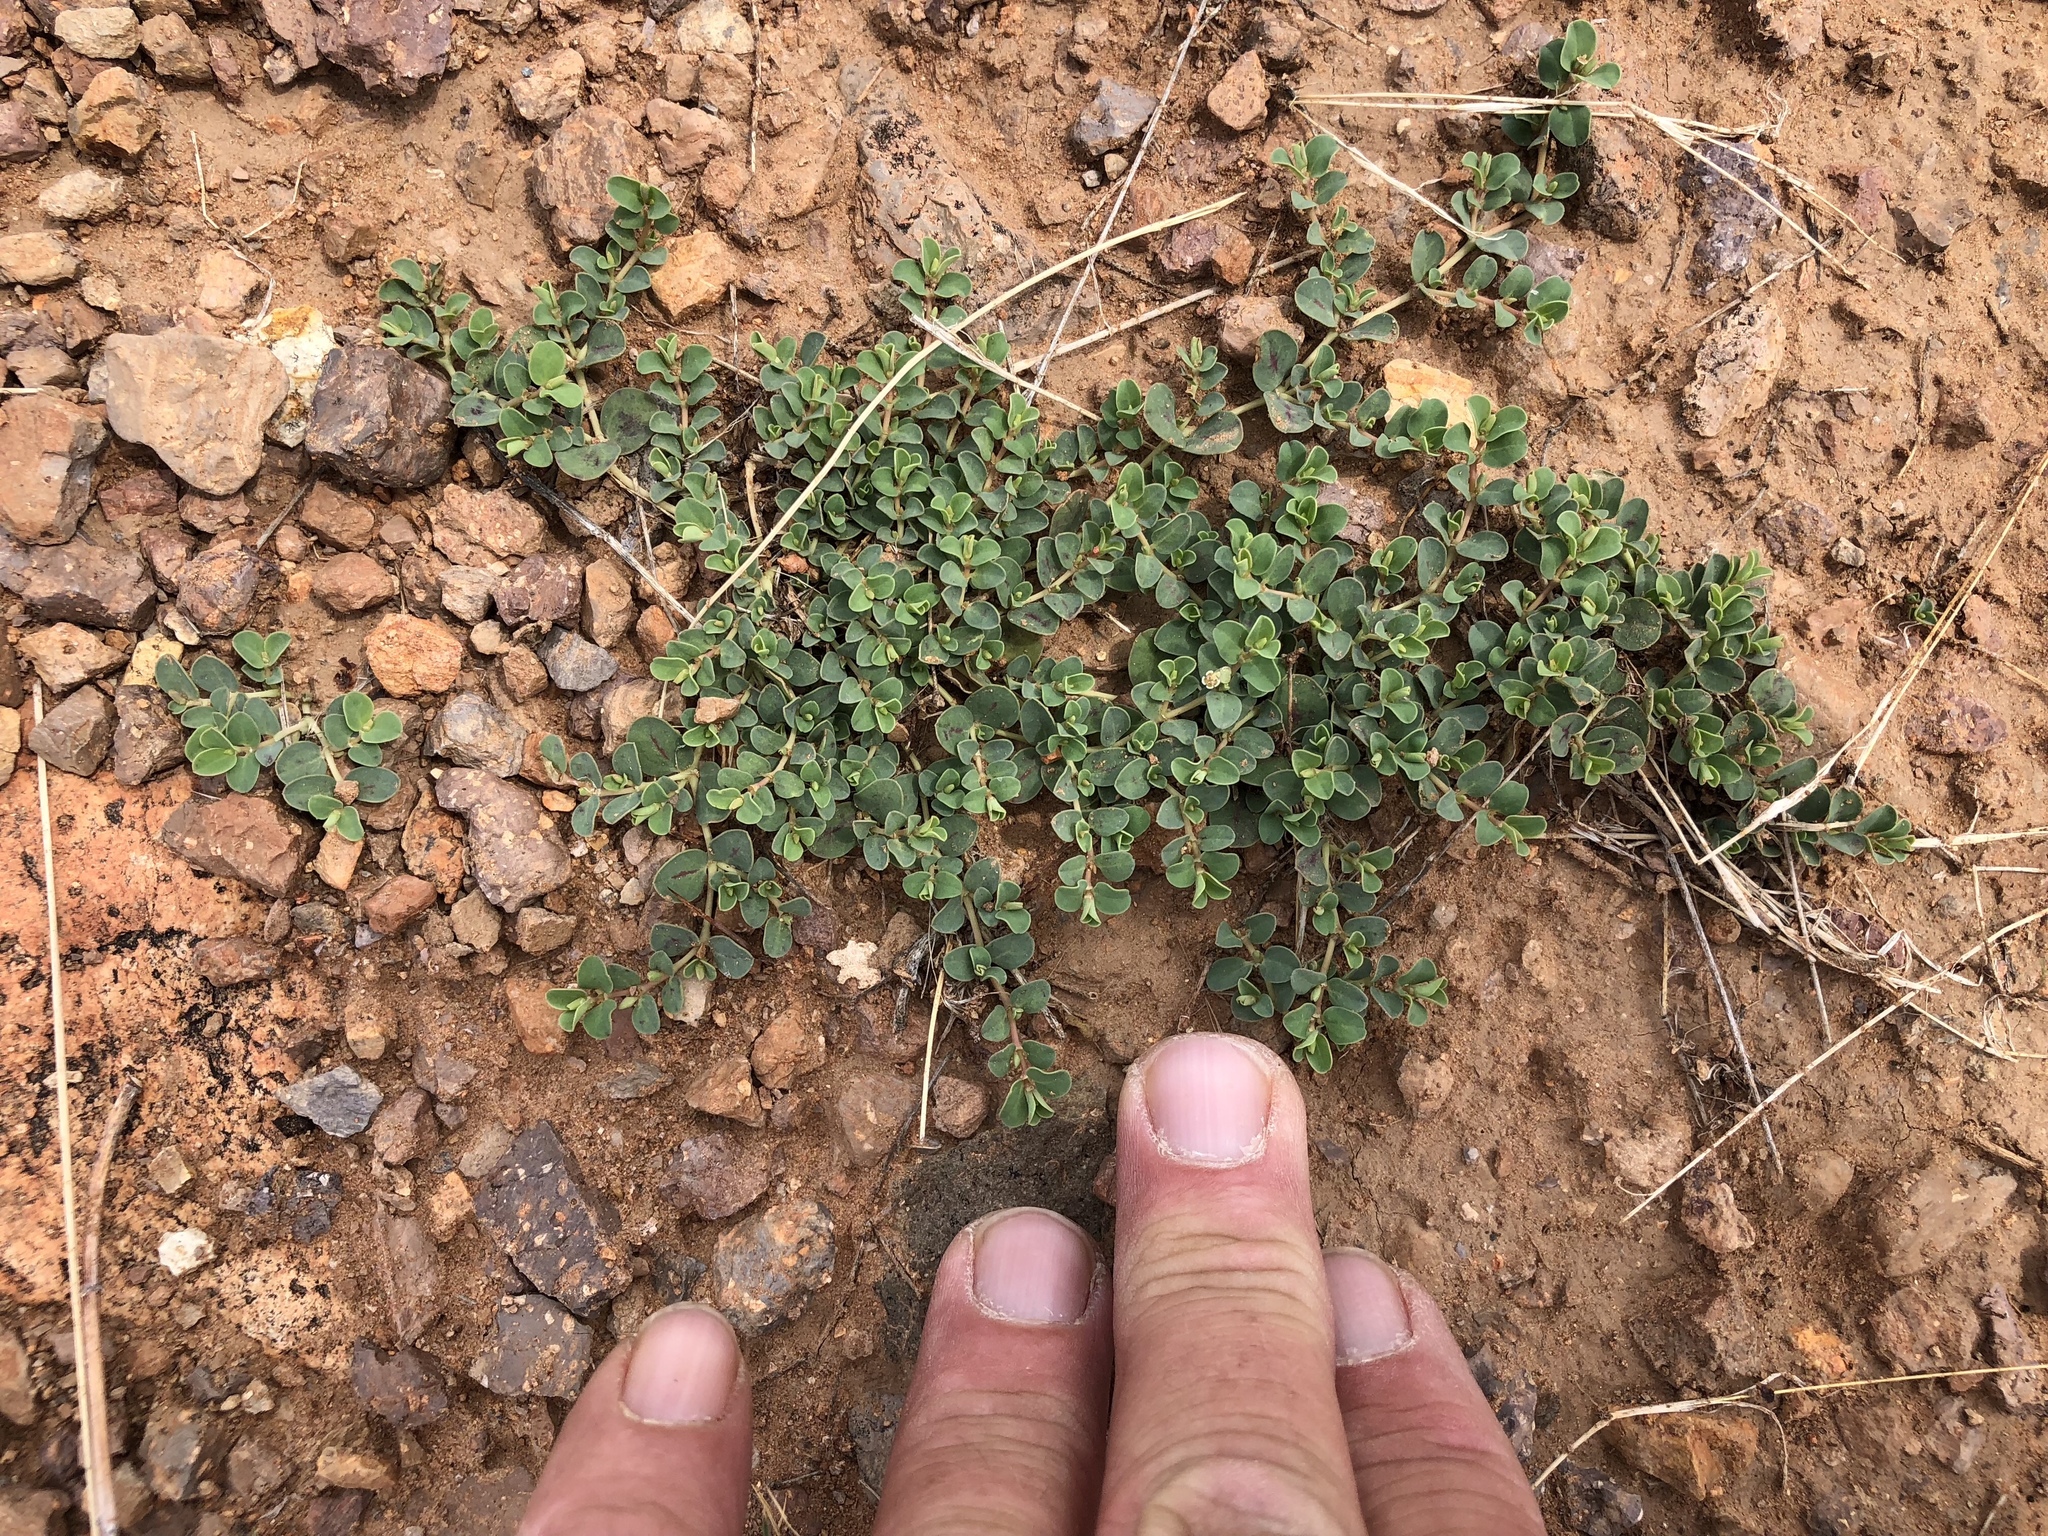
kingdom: Plantae
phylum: Tracheophyta
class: Magnoliopsida
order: Malpighiales
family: Euphorbiaceae
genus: Euphorbia
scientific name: Euphorbia albomarginata
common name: Whitemargin sandmat
